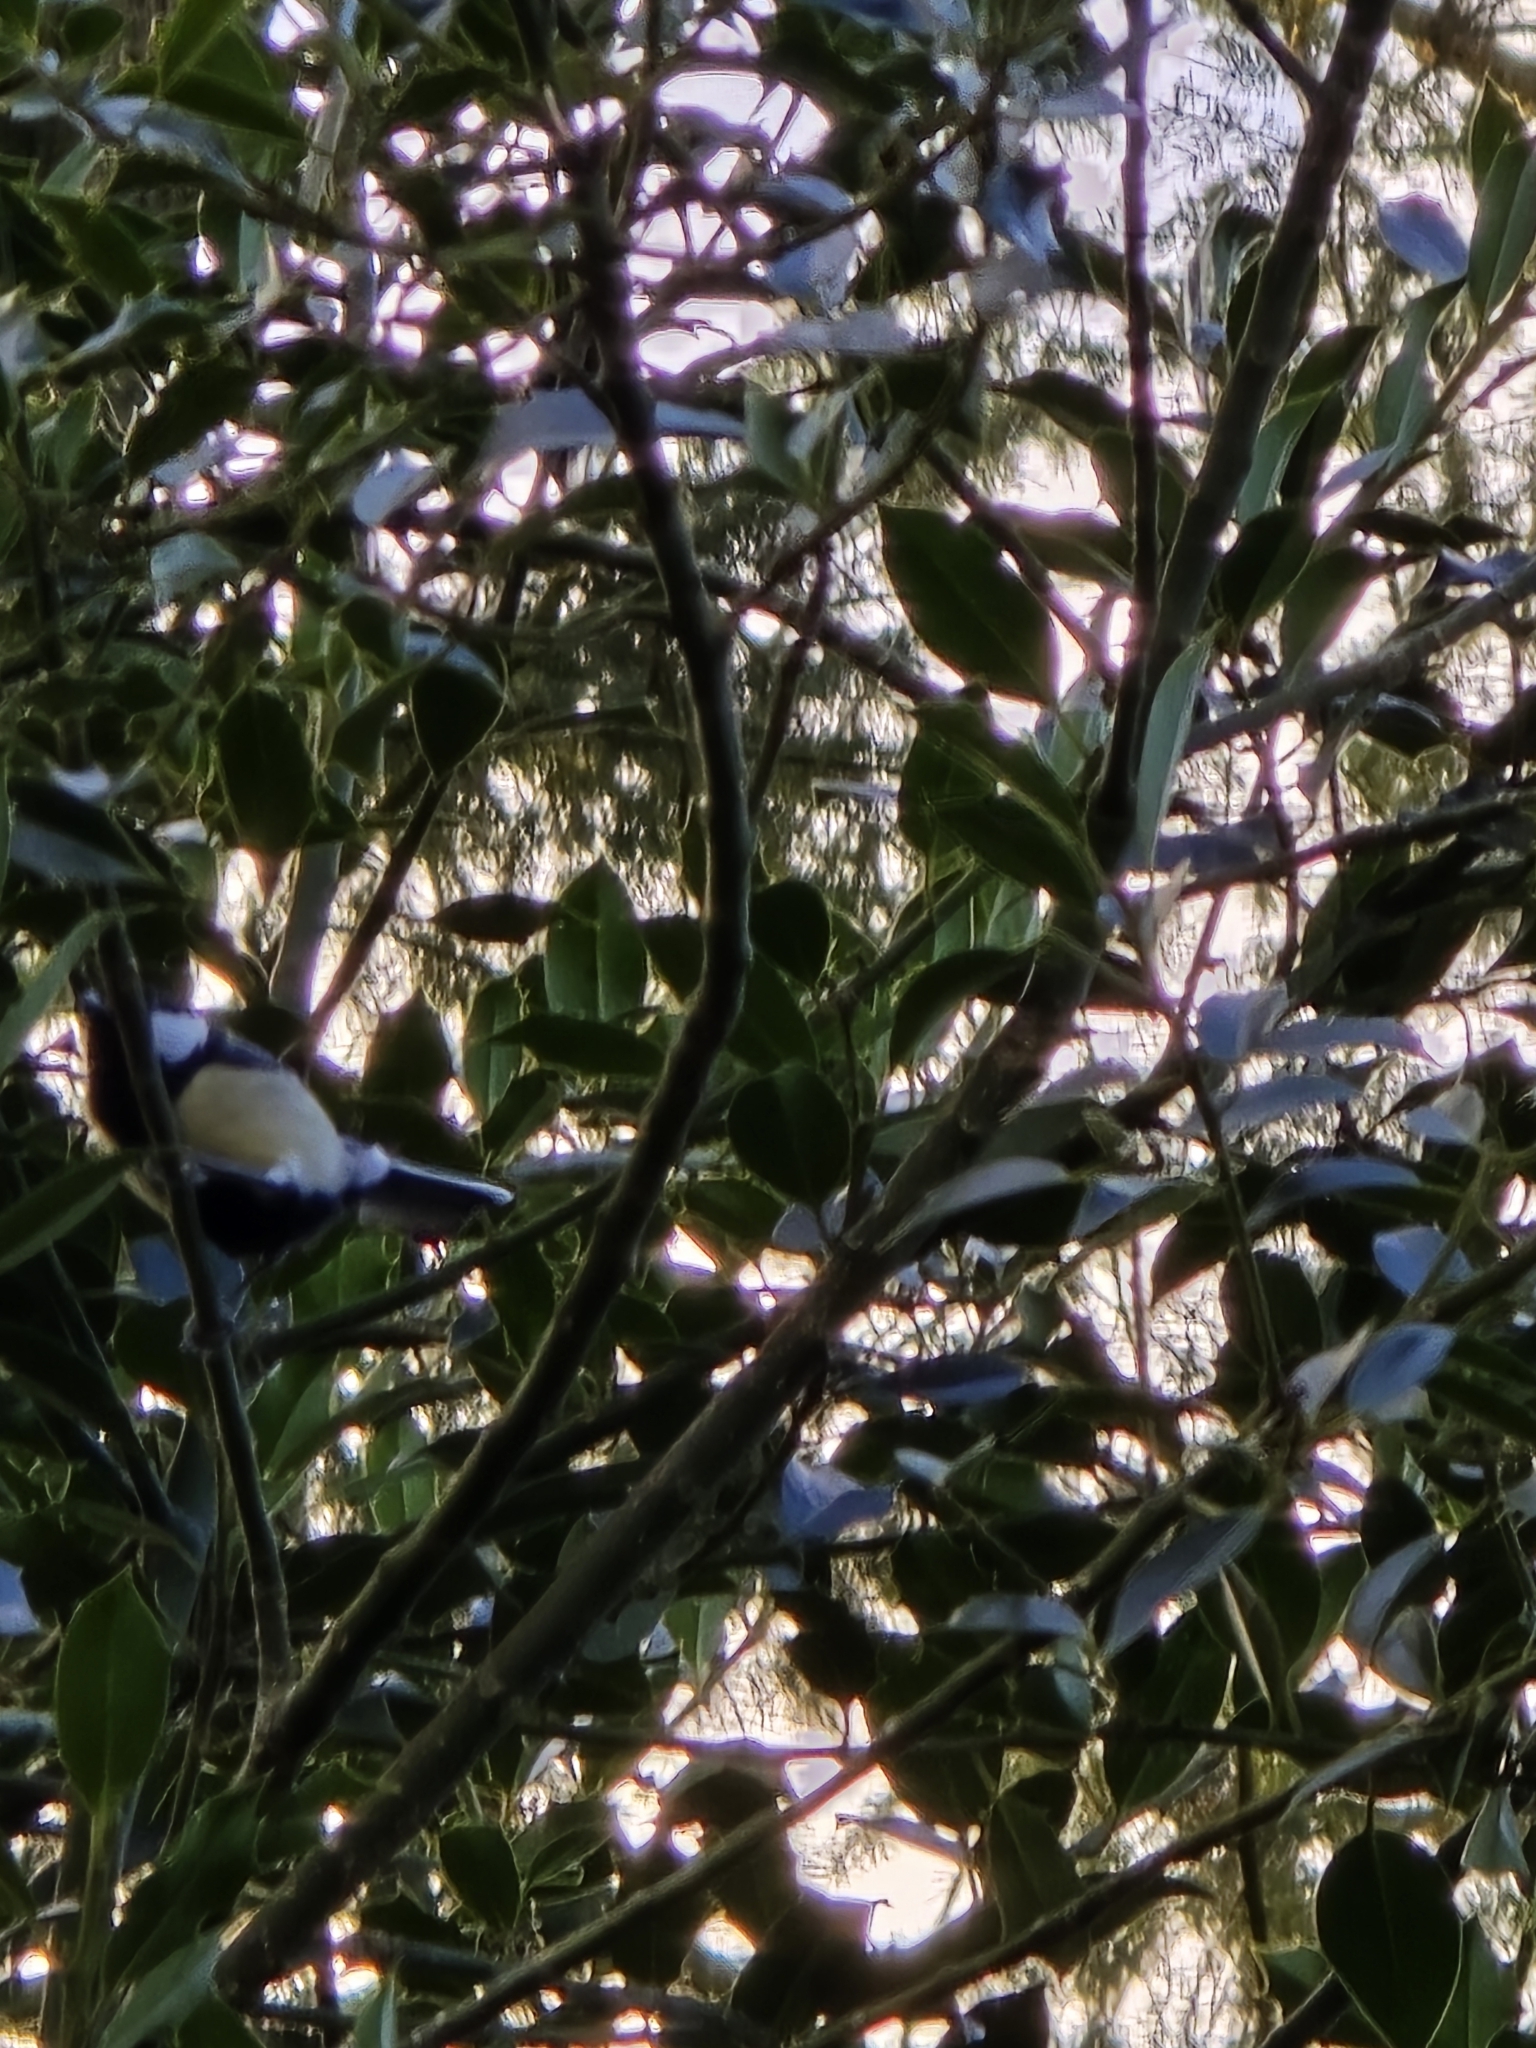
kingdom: Animalia
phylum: Chordata
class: Aves
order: Passeriformes
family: Paridae
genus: Parus
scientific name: Parus major
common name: Great tit
